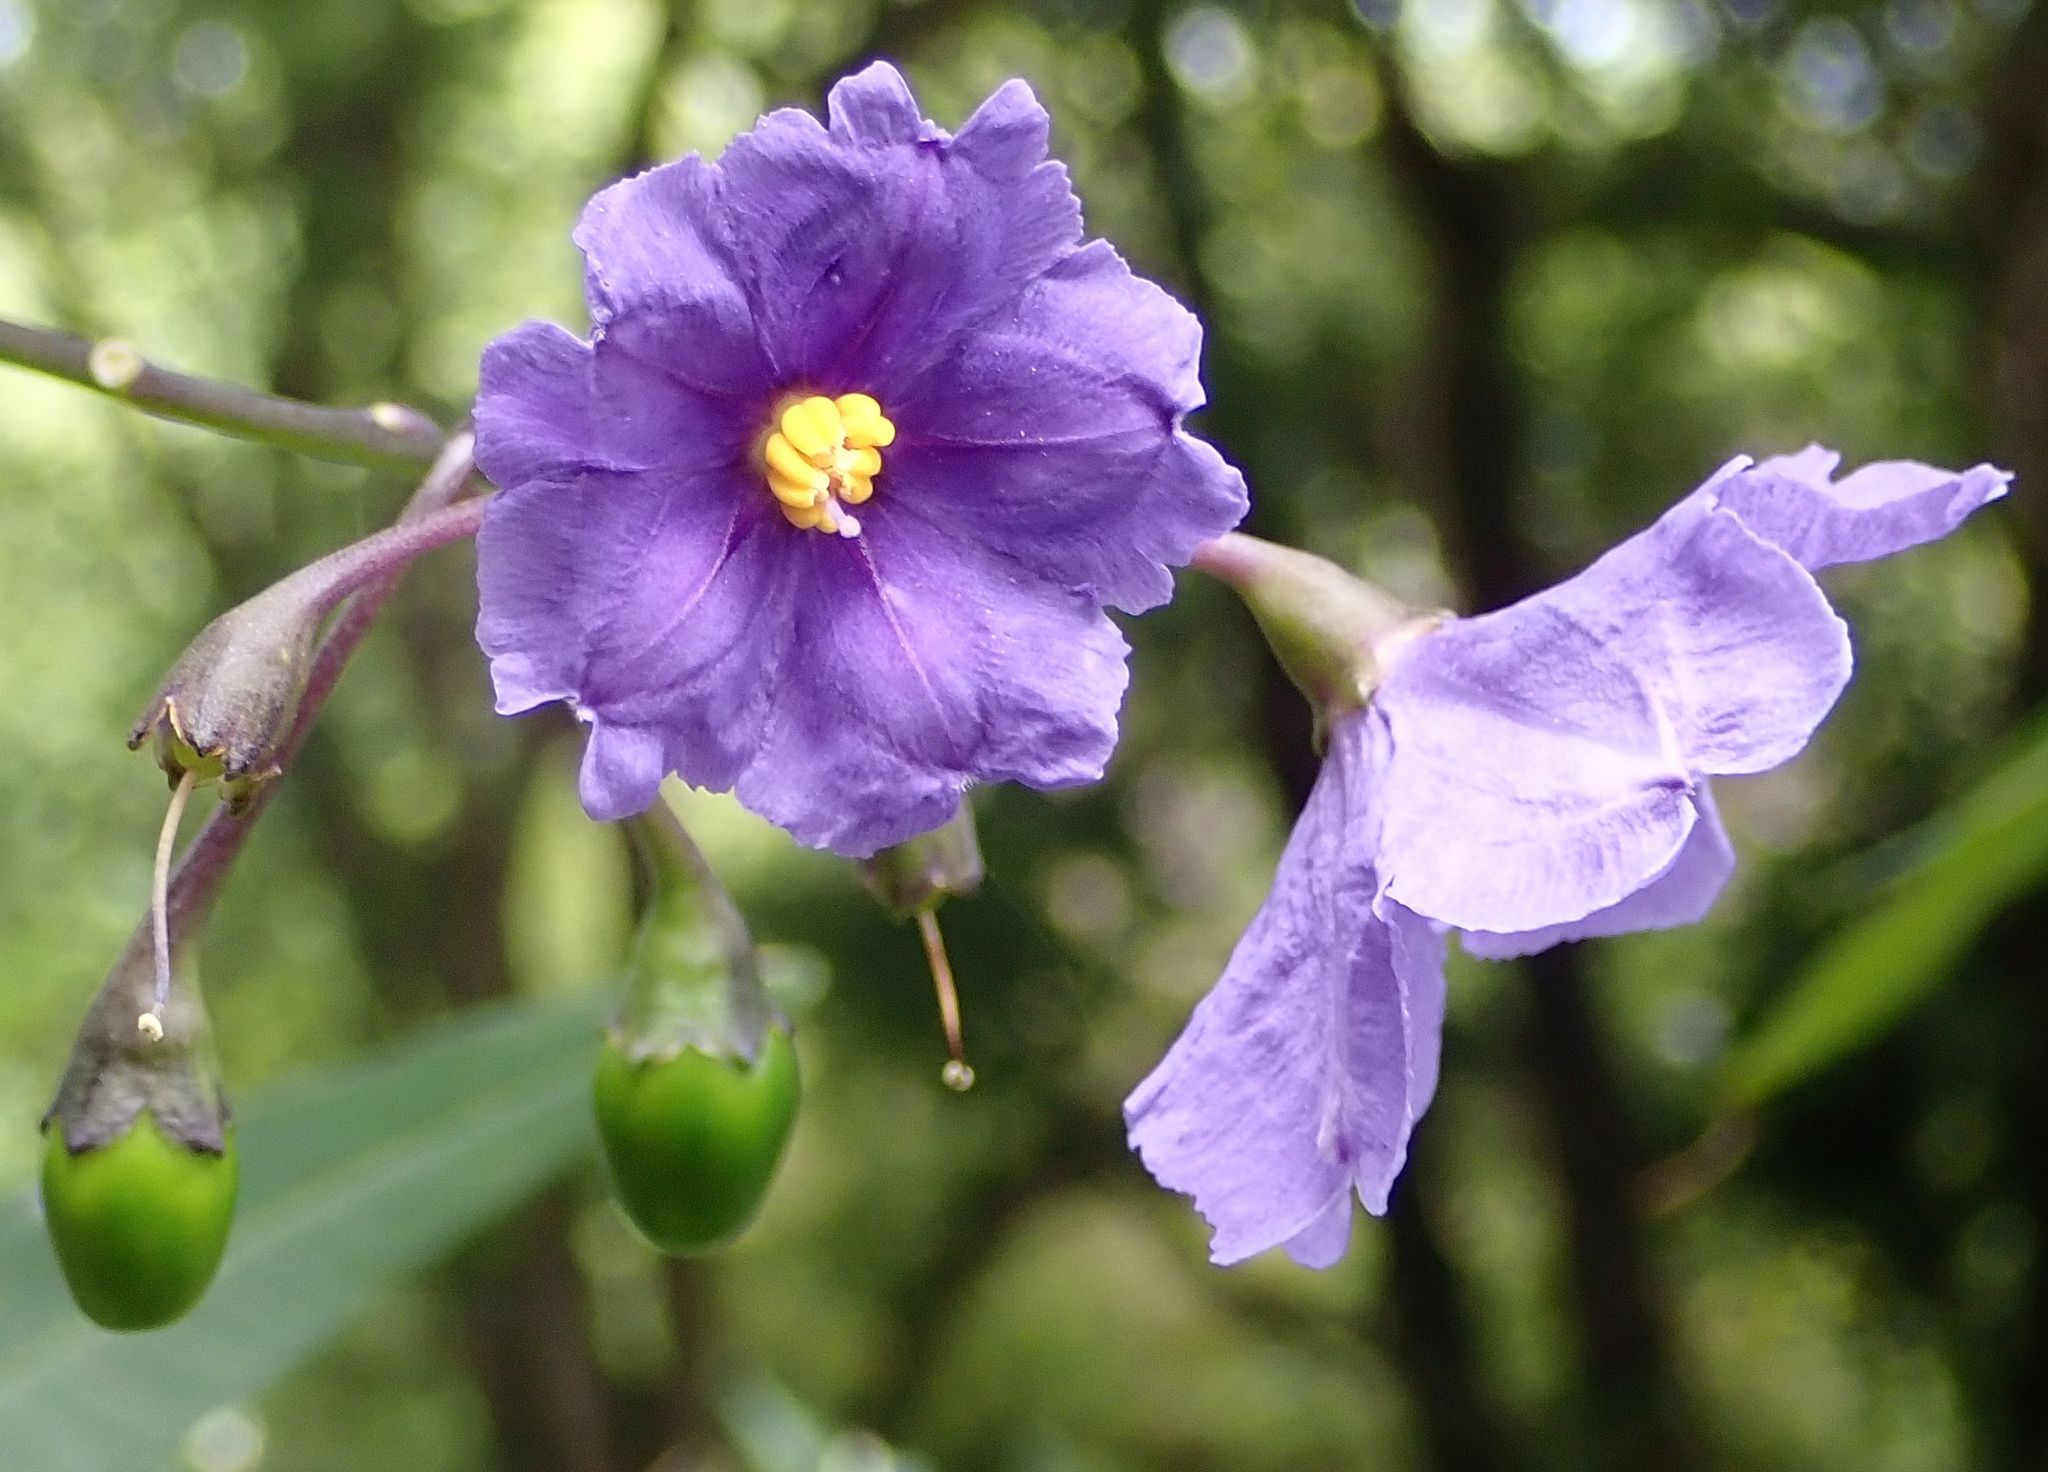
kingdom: Plantae
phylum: Tracheophyta
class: Magnoliopsida
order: Solanales
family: Solanaceae
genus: Solanum
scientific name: Solanum laciniatum
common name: Kangaroo-apple
